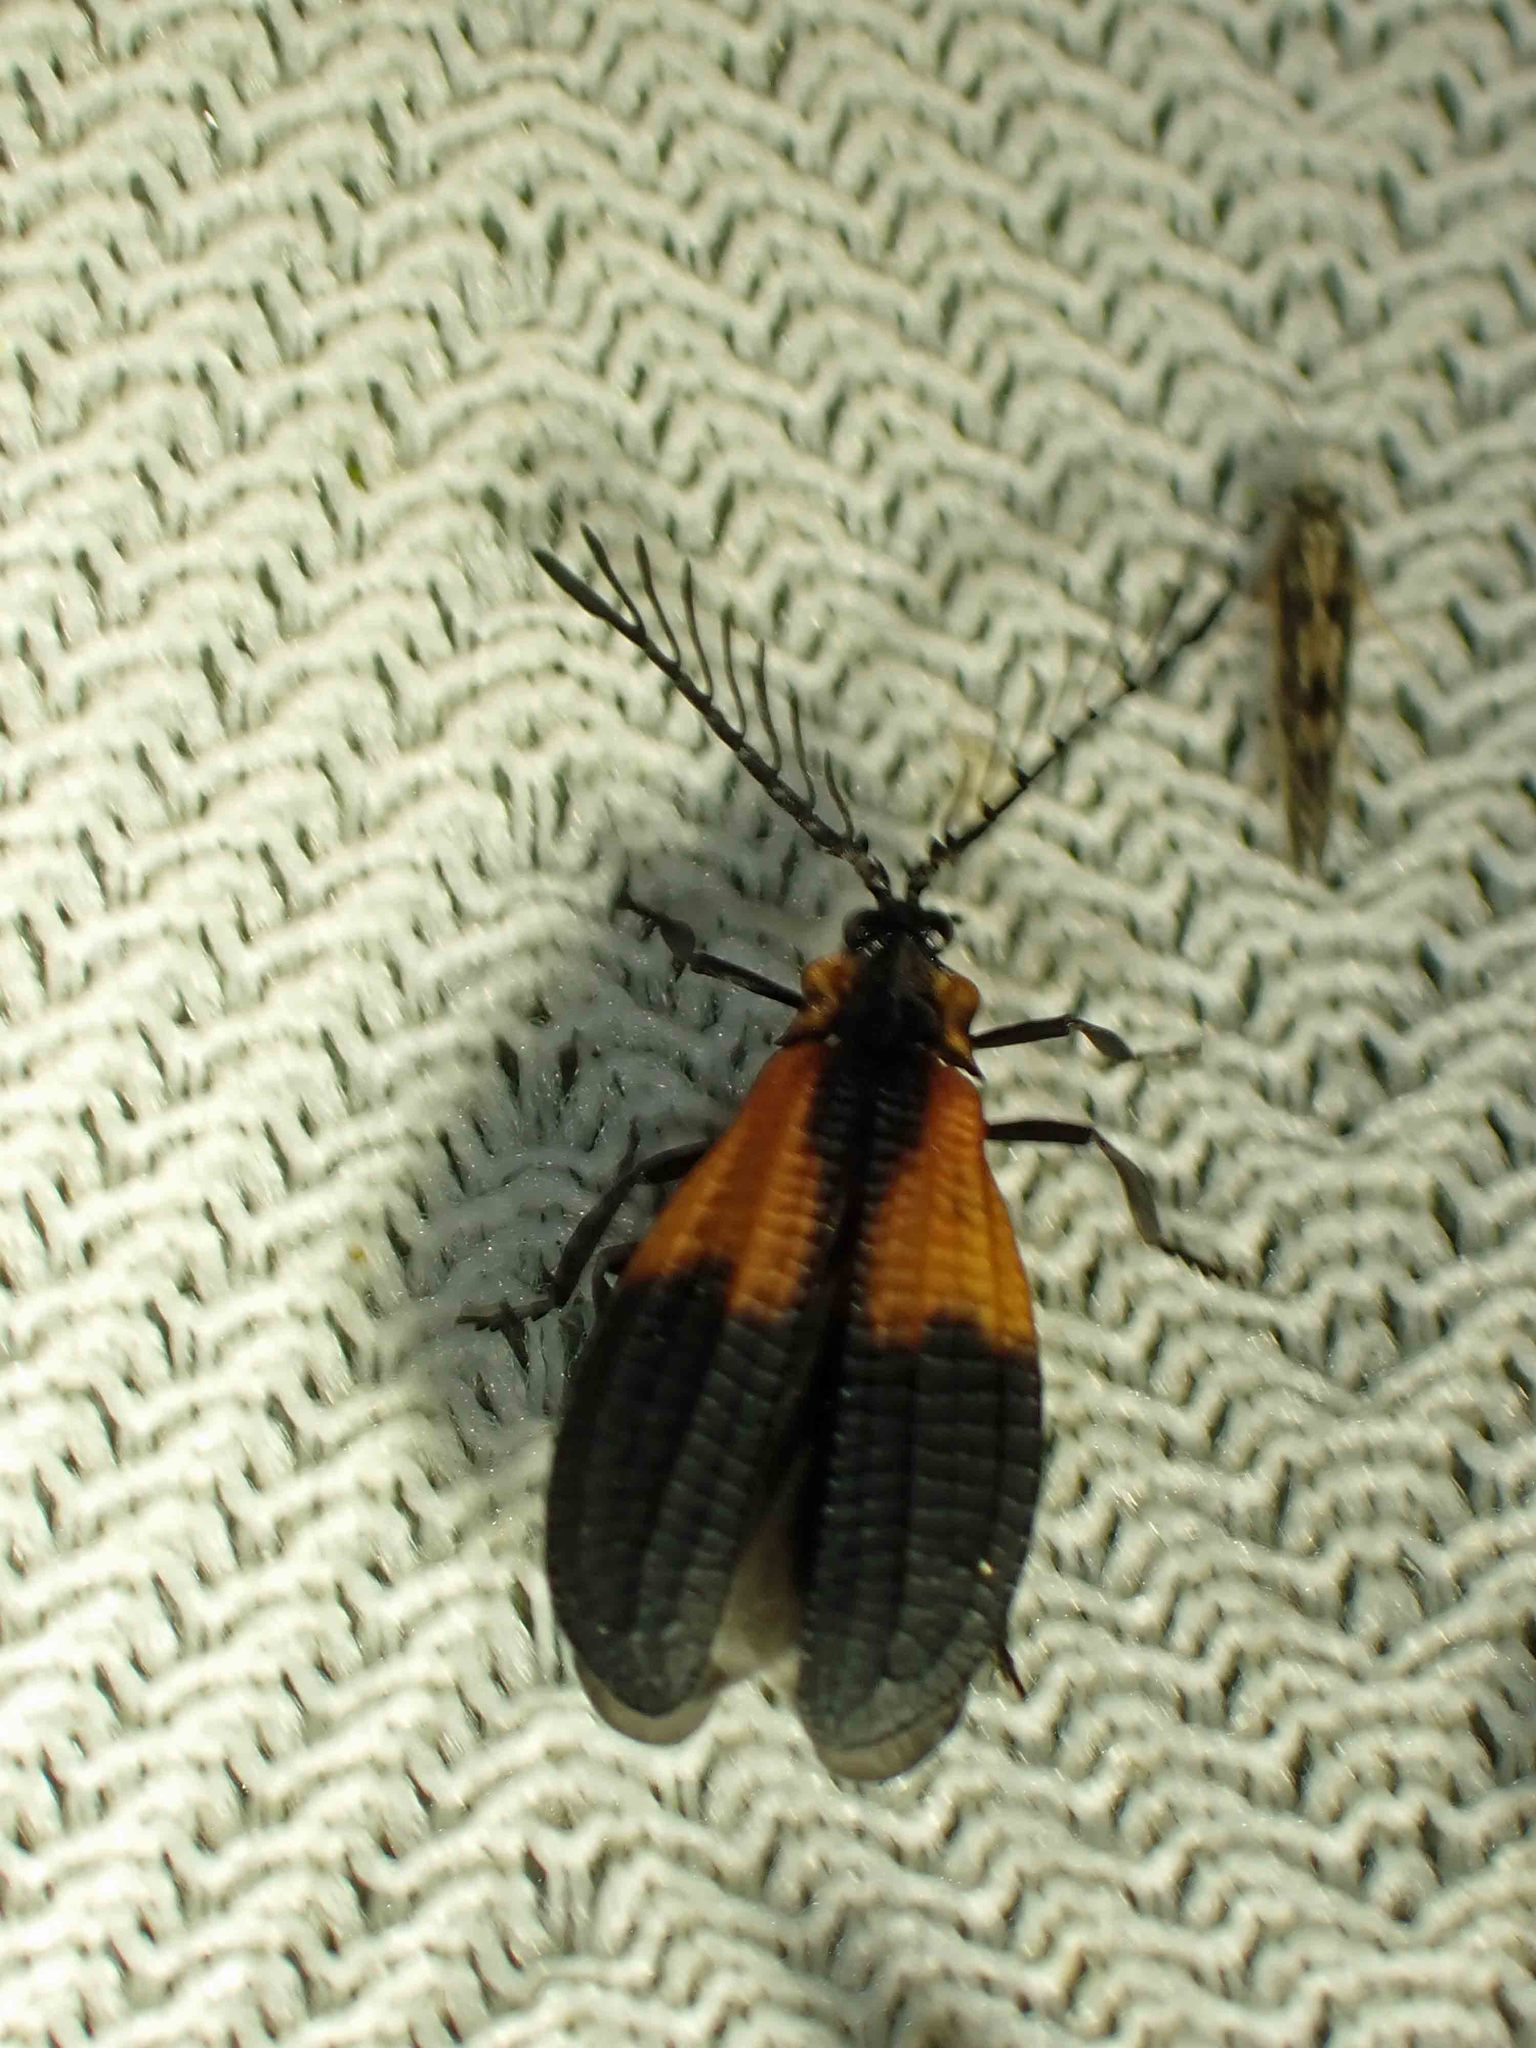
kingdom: Animalia
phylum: Arthropoda
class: Insecta
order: Coleoptera
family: Lycidae
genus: Caenia
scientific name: Caenia dimidiata
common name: Terminal net-winged beetle
